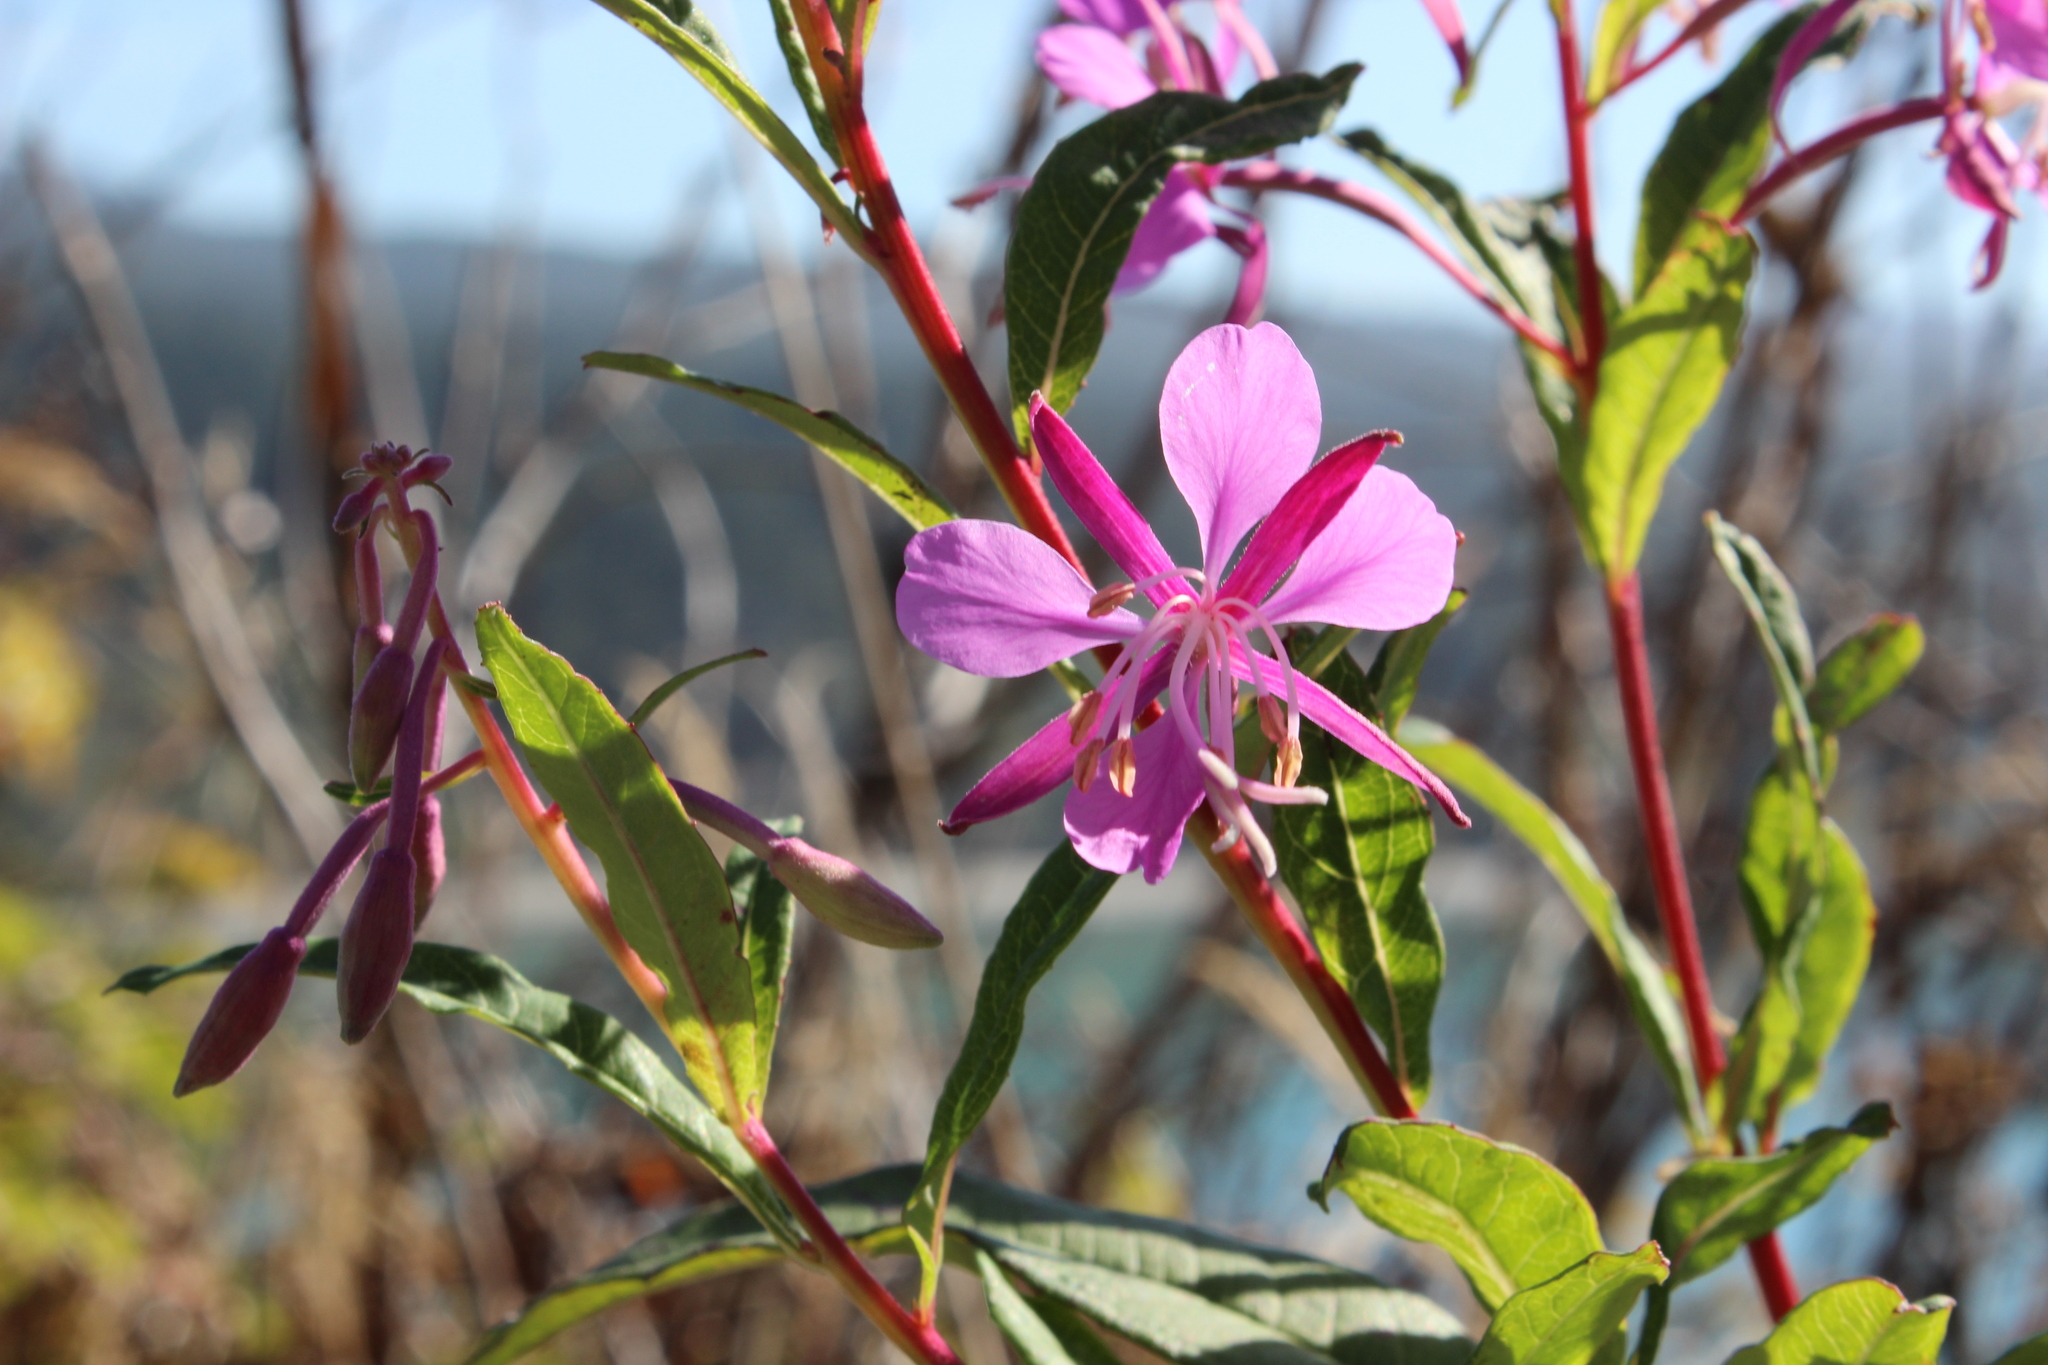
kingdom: Plantae
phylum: Tracheophyta
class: Magnoliopsida
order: Myrtales
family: Onagraceae
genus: Chamaenerion
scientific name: Chamaenerion angustifolium
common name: Fireweed
